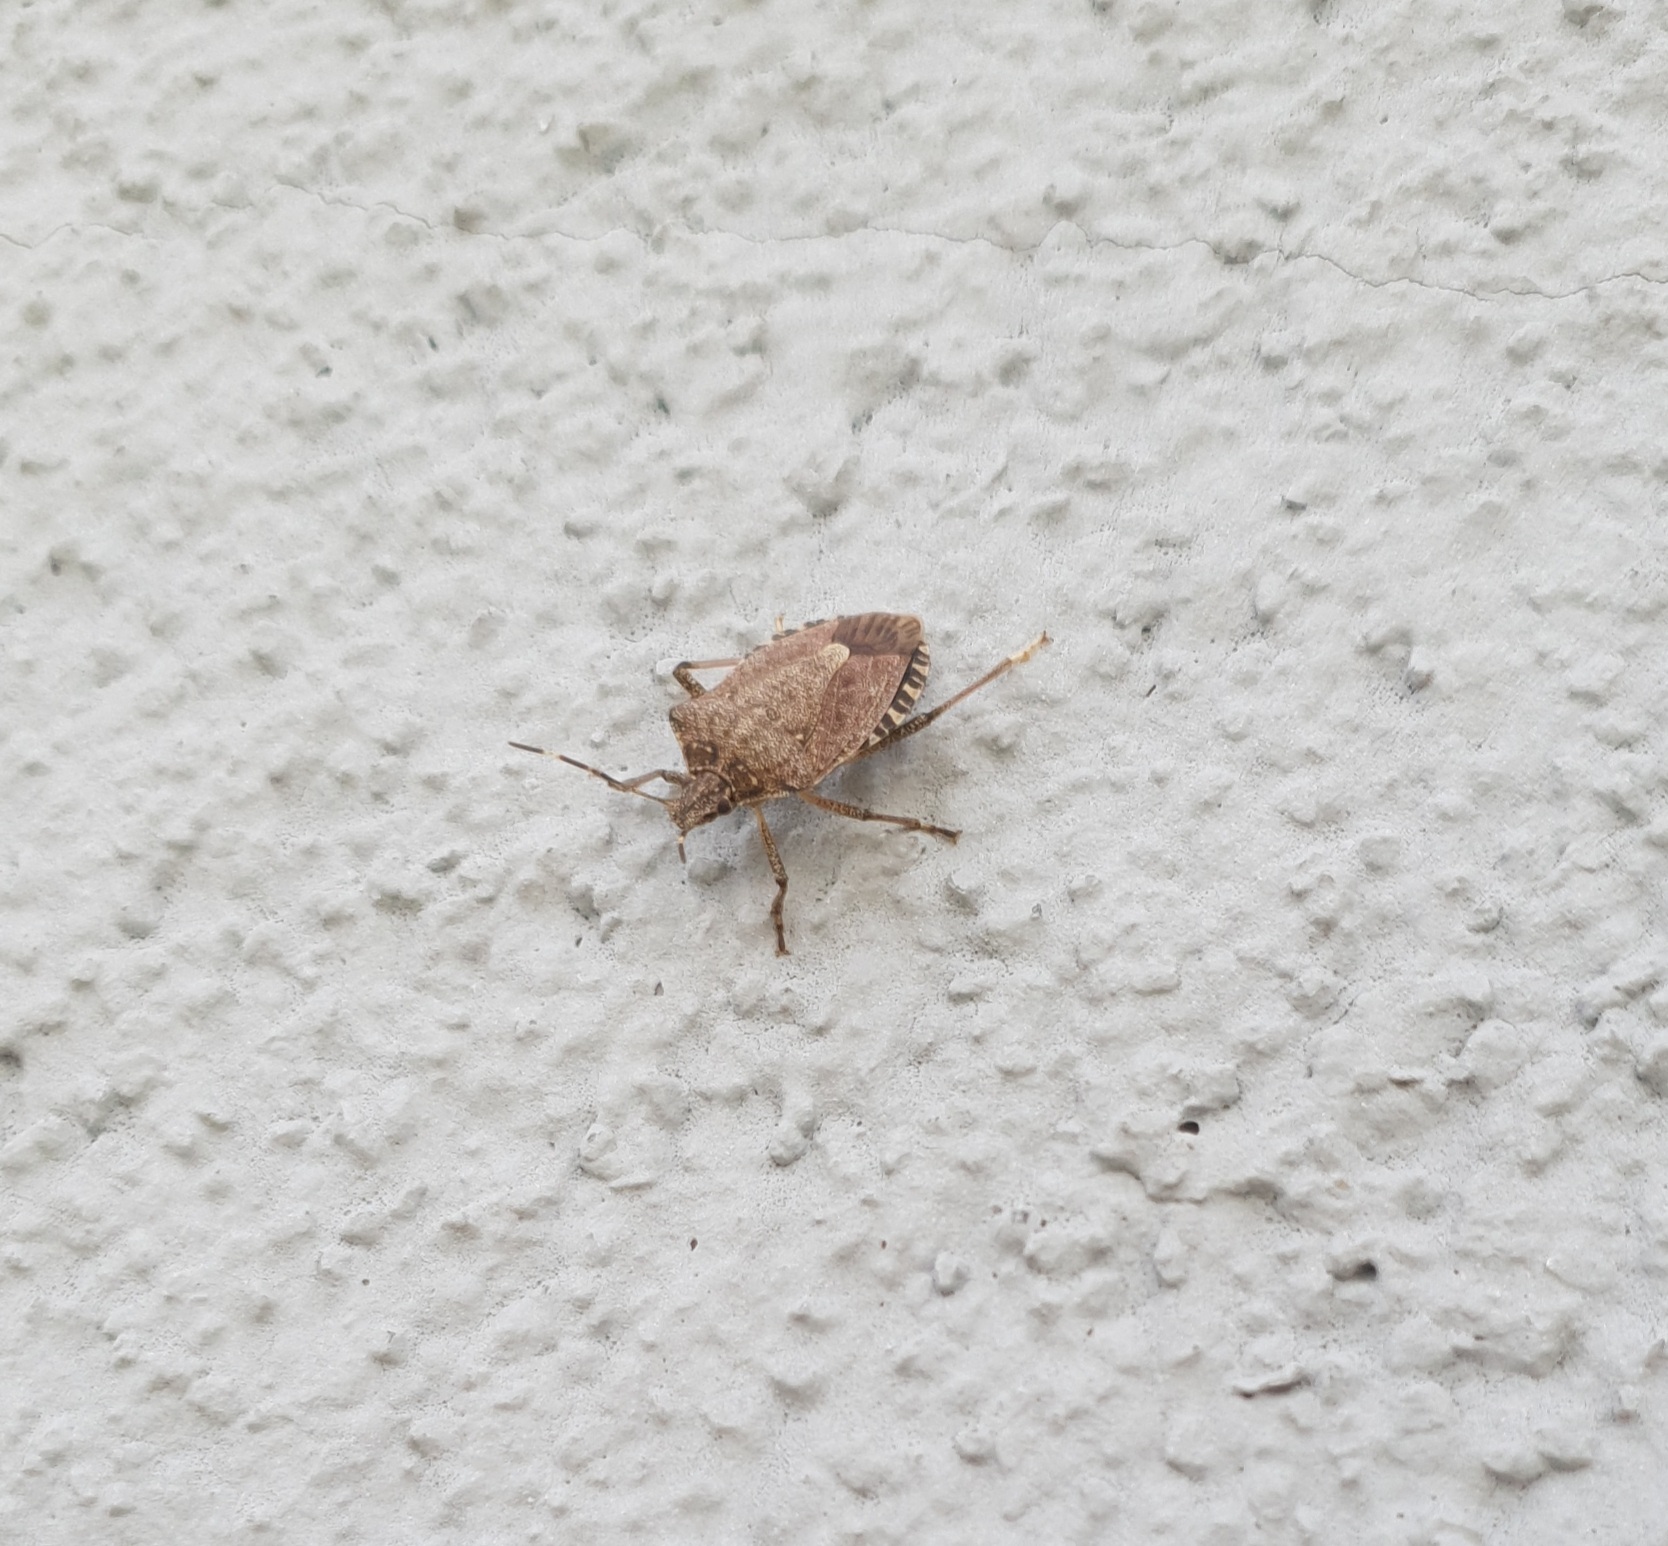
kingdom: Animalia
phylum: Arthropoda
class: Insecta
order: Hemiptera
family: Pentatomidae
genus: Halyomorpha
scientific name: Halyomorpha halys
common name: Brown marmorated stink bug
